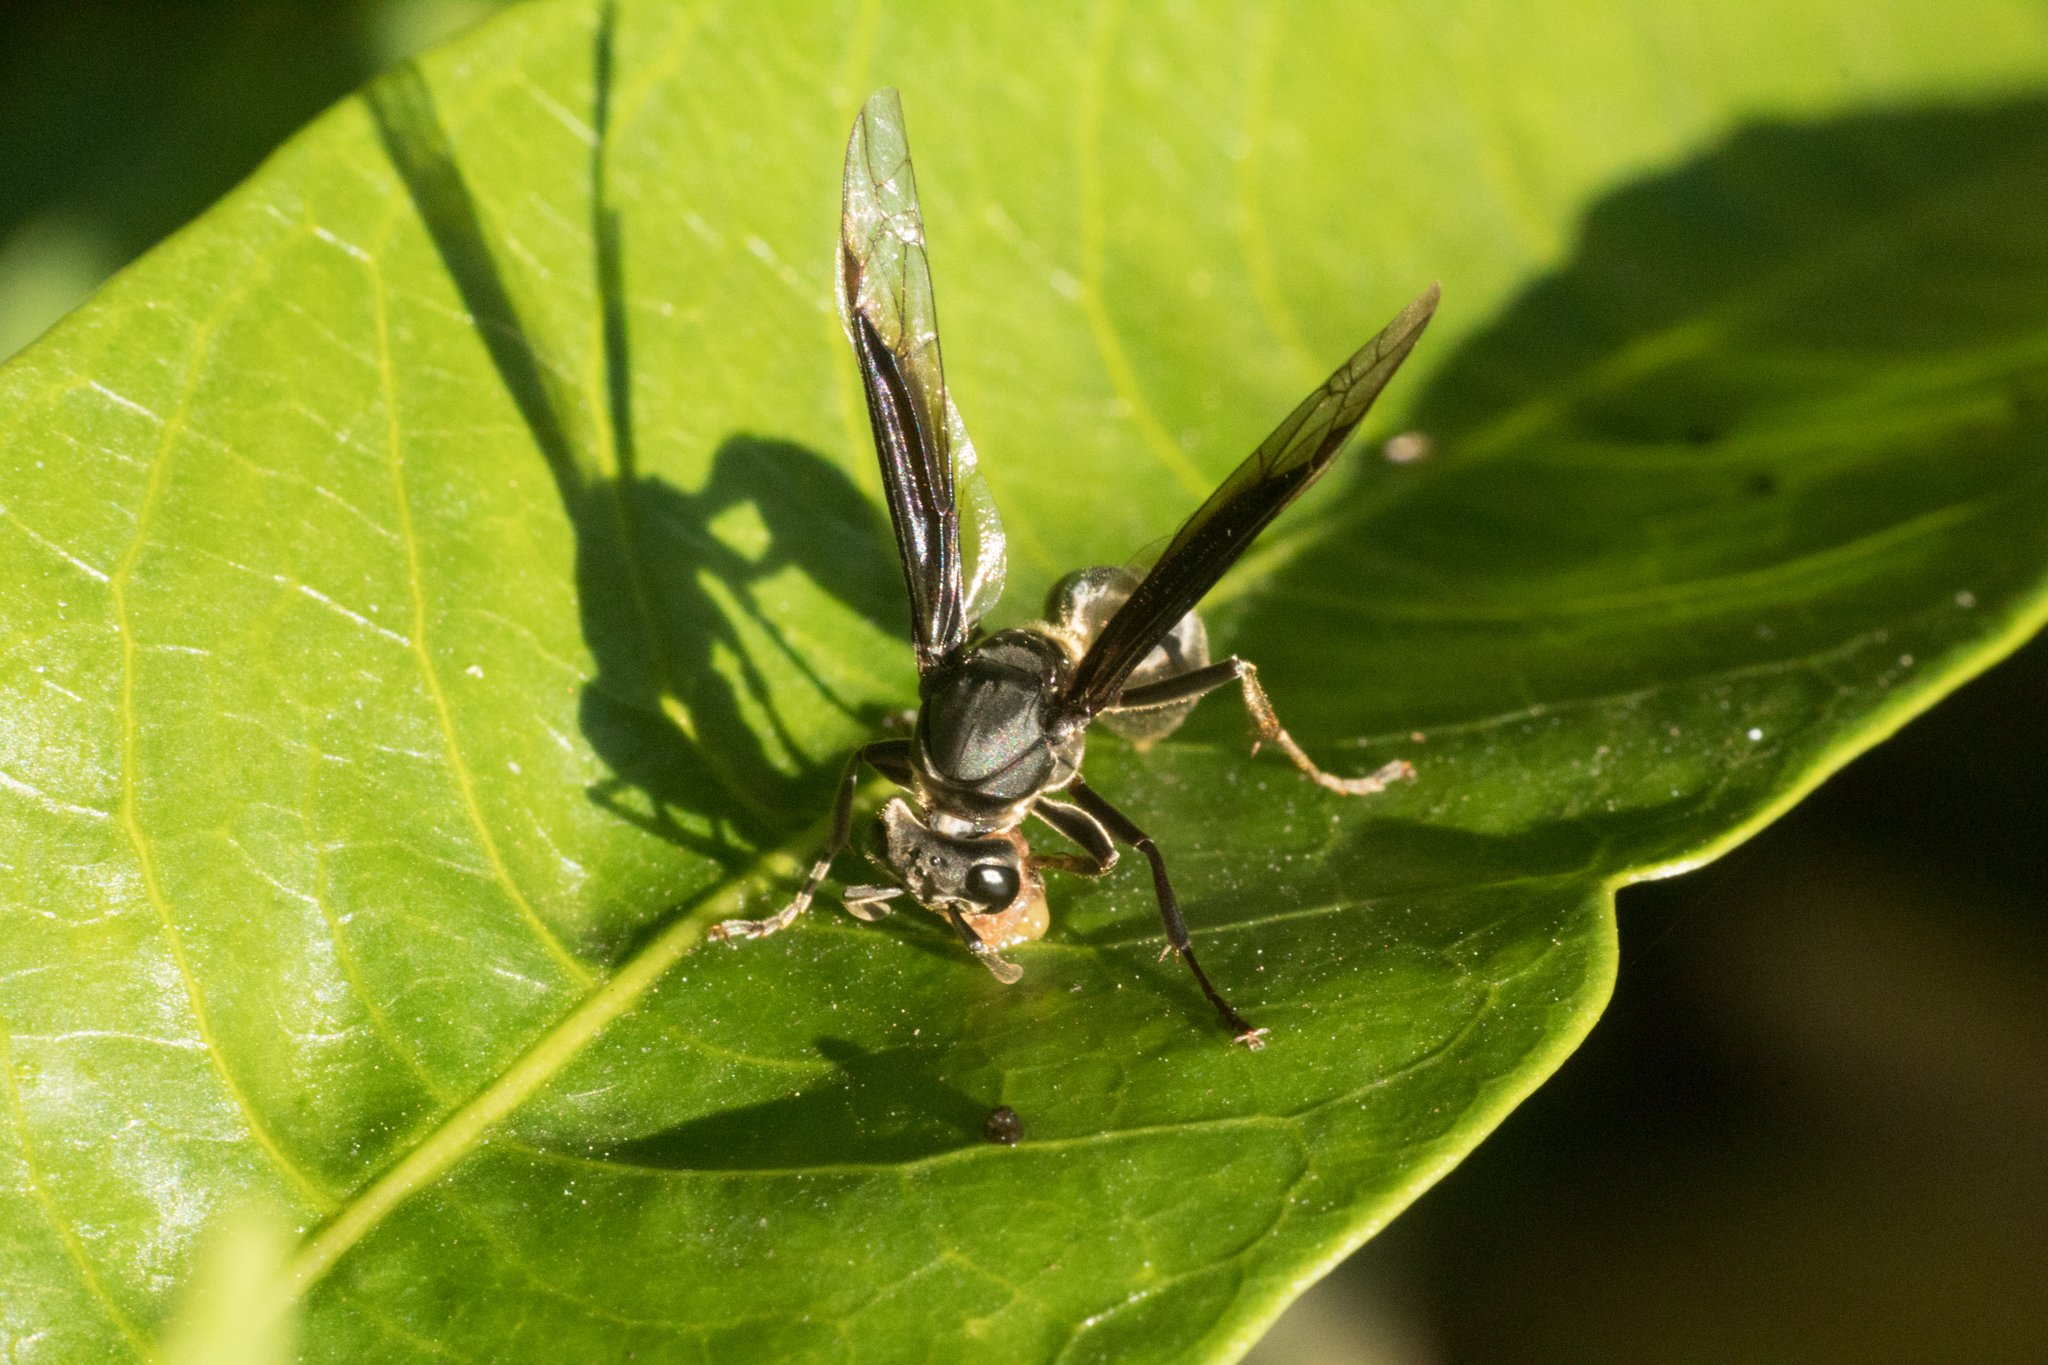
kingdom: Animalia
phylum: Arthropoda
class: Insecta
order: Hymenoptera
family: Eumenidae
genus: Polybia
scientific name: Polybia ignobilis
